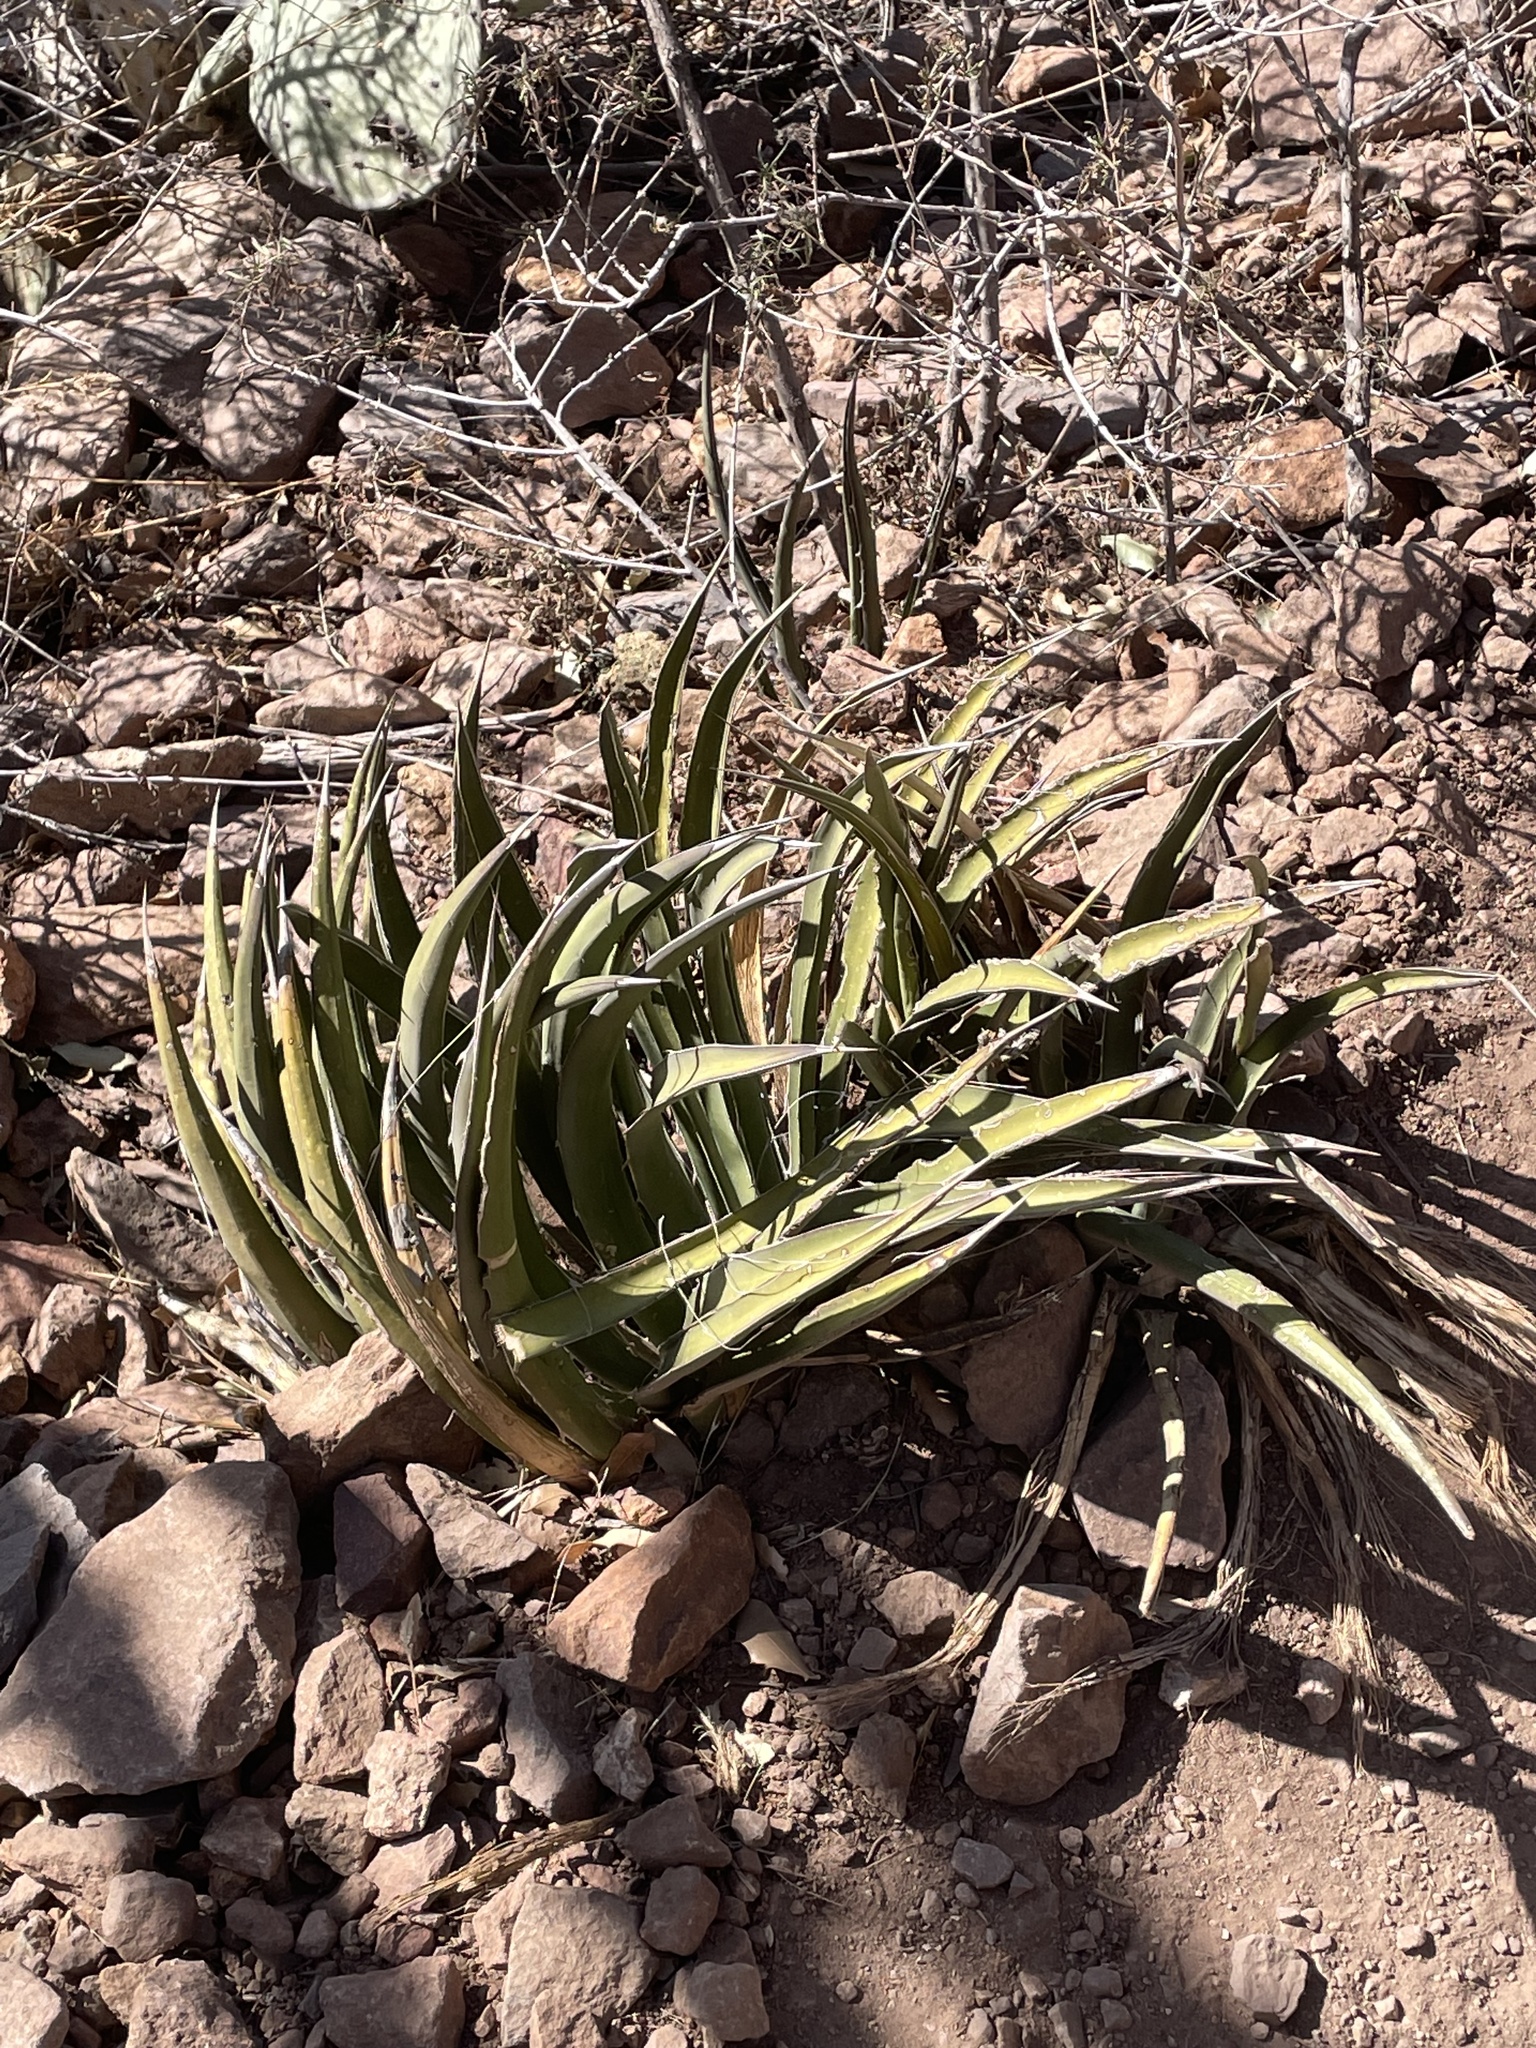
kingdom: Plantae
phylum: Tracheophyta
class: Liliopsida
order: Asparagales
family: Asparagaceae
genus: Agave
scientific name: Agave lechuguilla
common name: Lecheguilla agave
